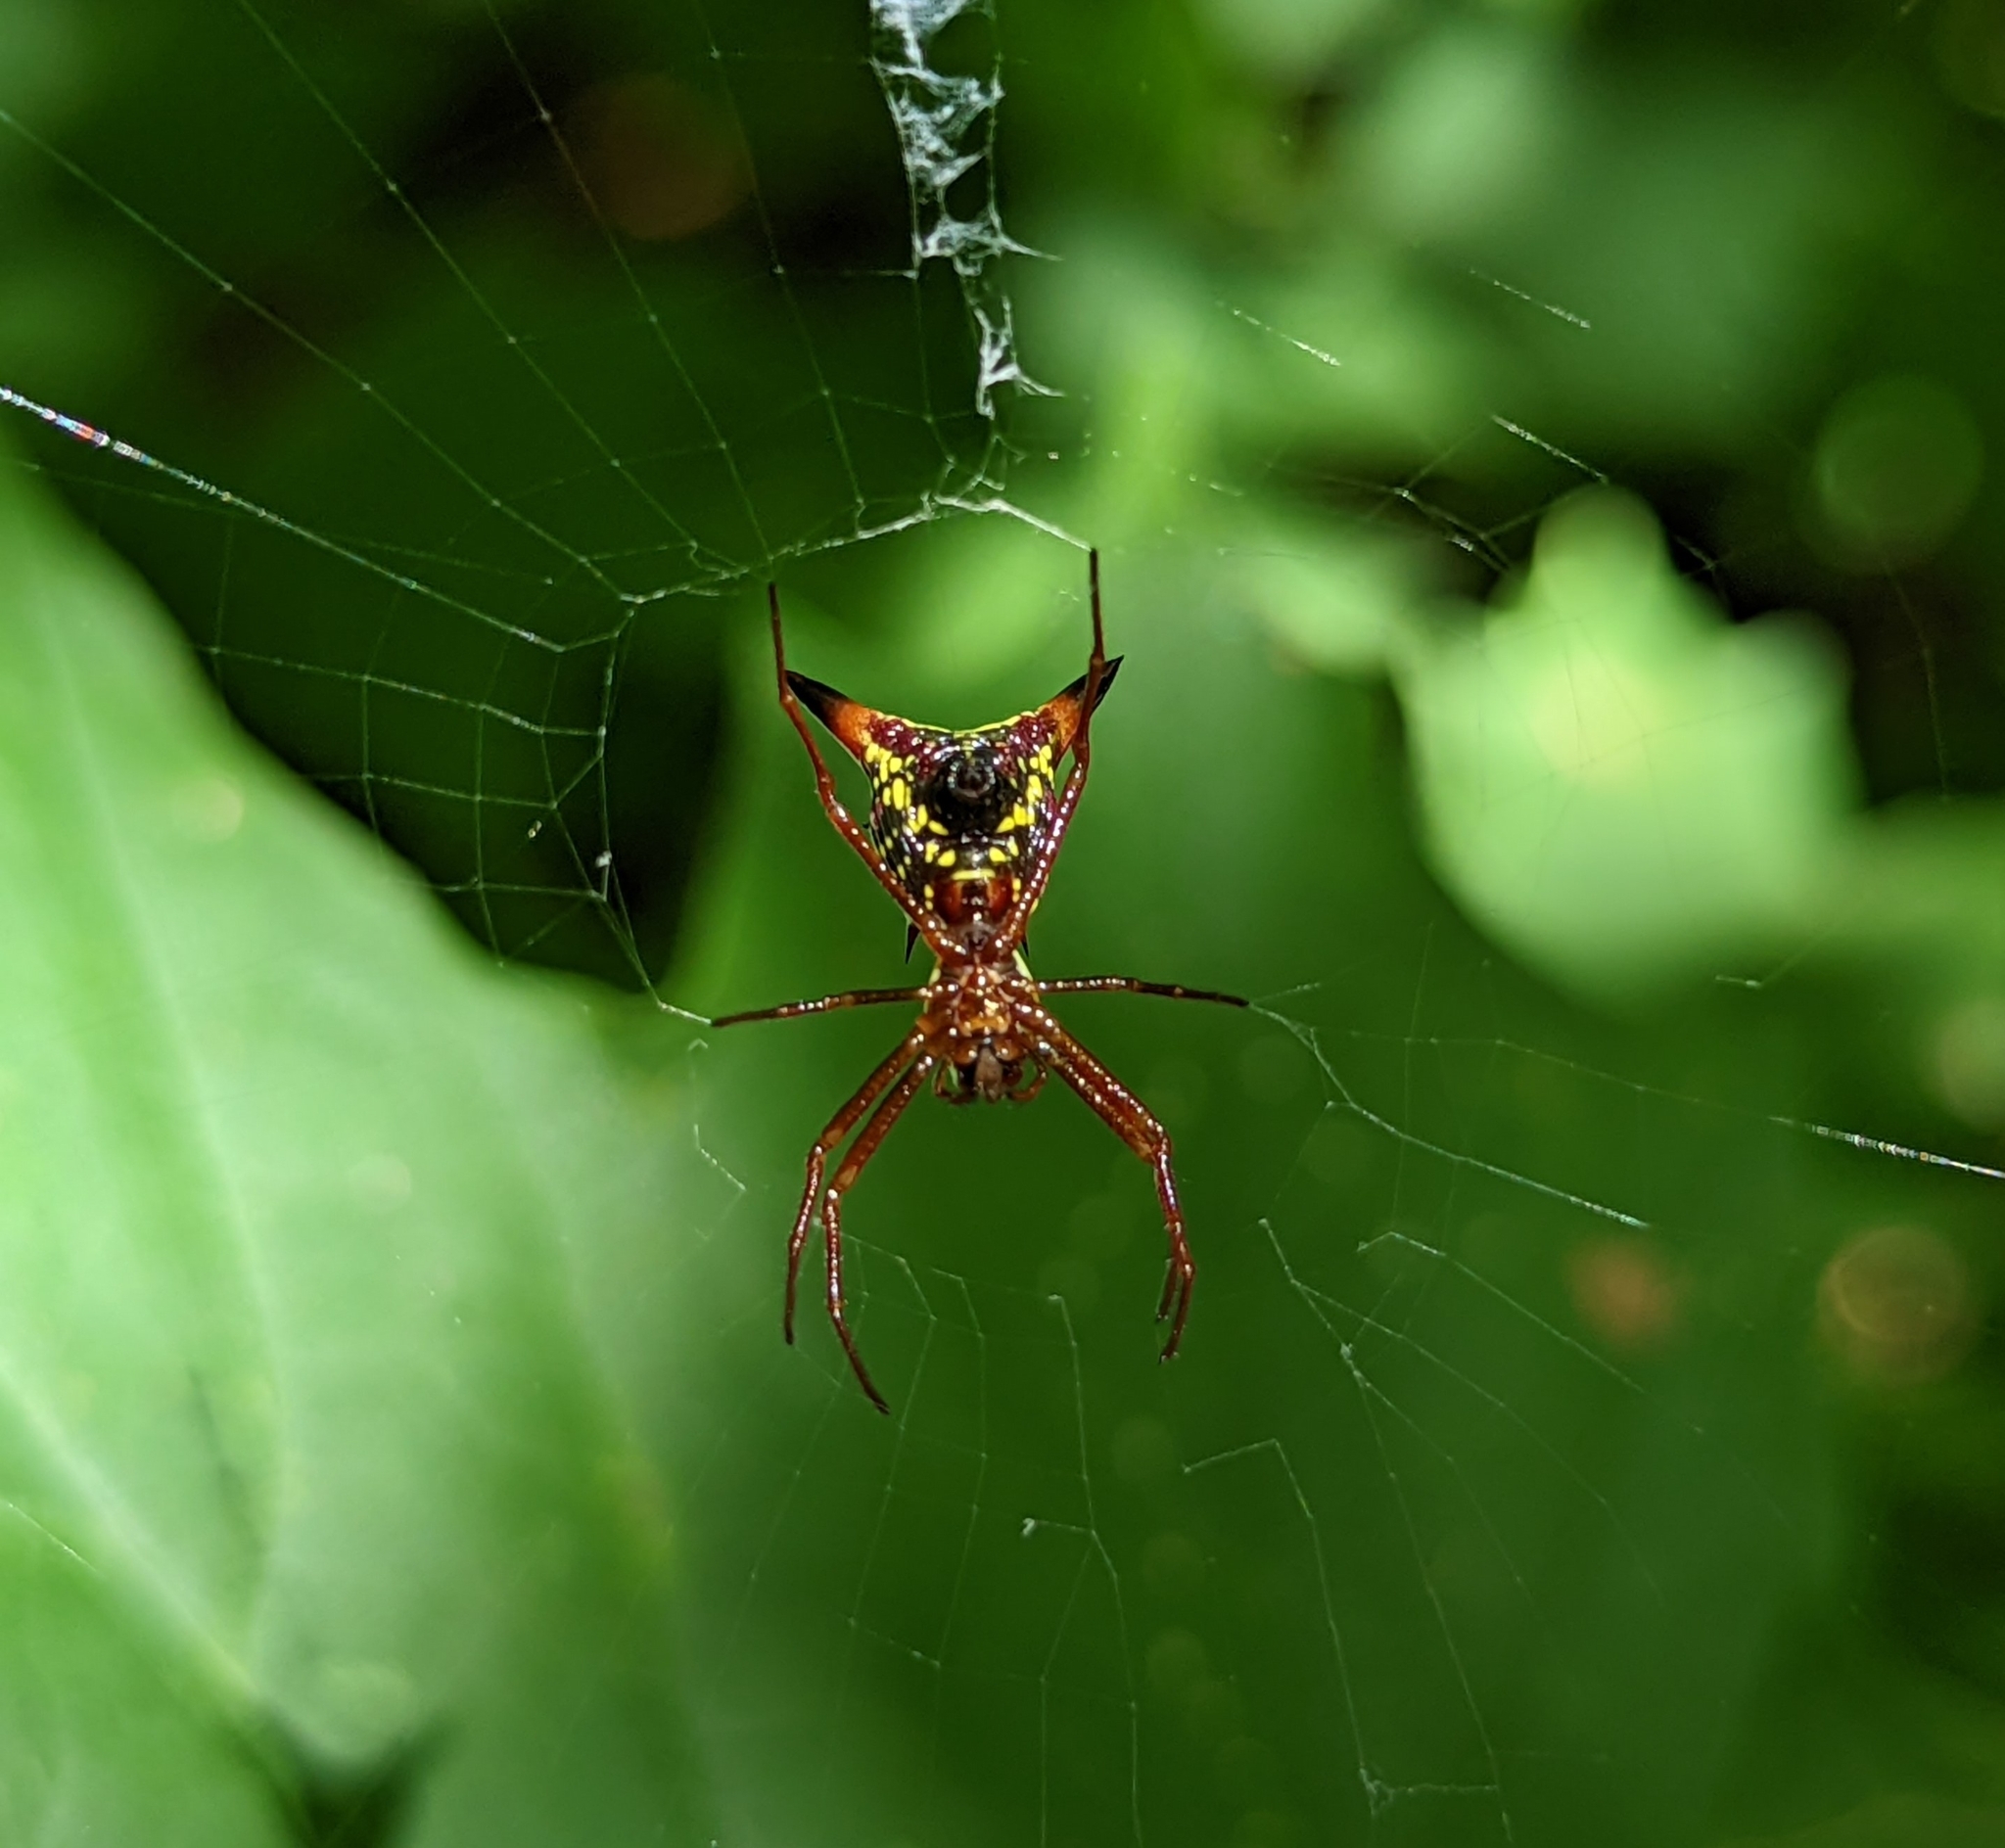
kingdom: Animalia
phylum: Arthropoda
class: Arachnida
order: Araneae
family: Araneidae
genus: Micrathena
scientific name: Micrathena sagittata
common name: Orb weavers
